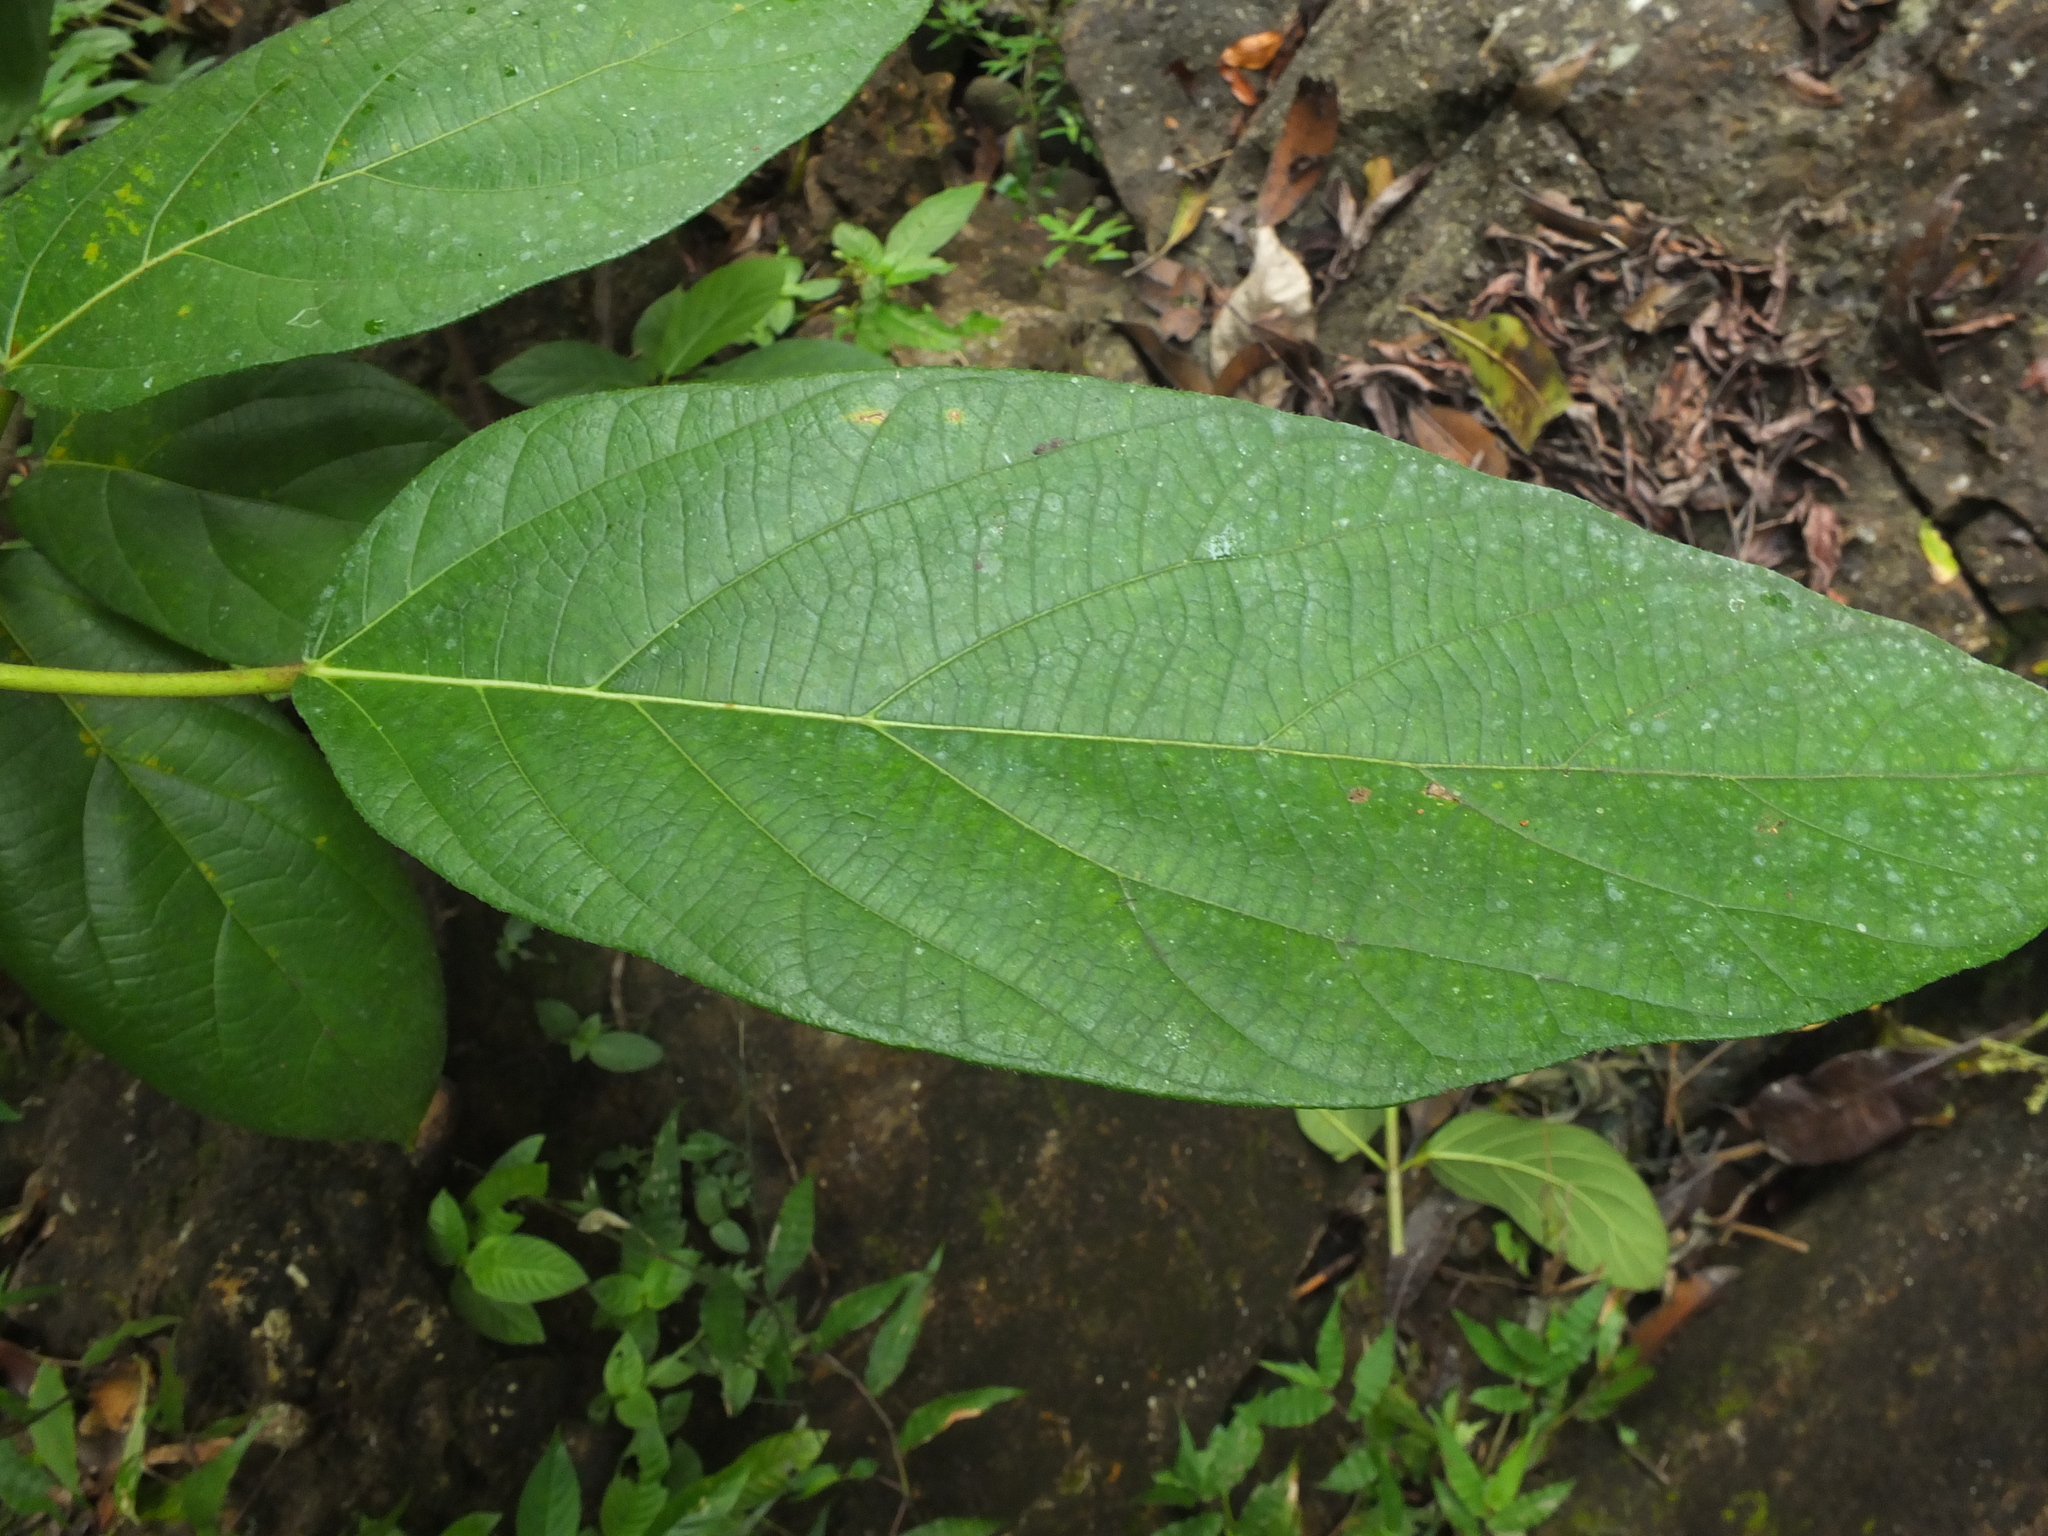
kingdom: Plantae
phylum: Tracheophyta
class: Magnoliopsida
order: Rosales
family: Moraceae
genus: Ficus
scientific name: Ficus hispida
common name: Hairy fig
